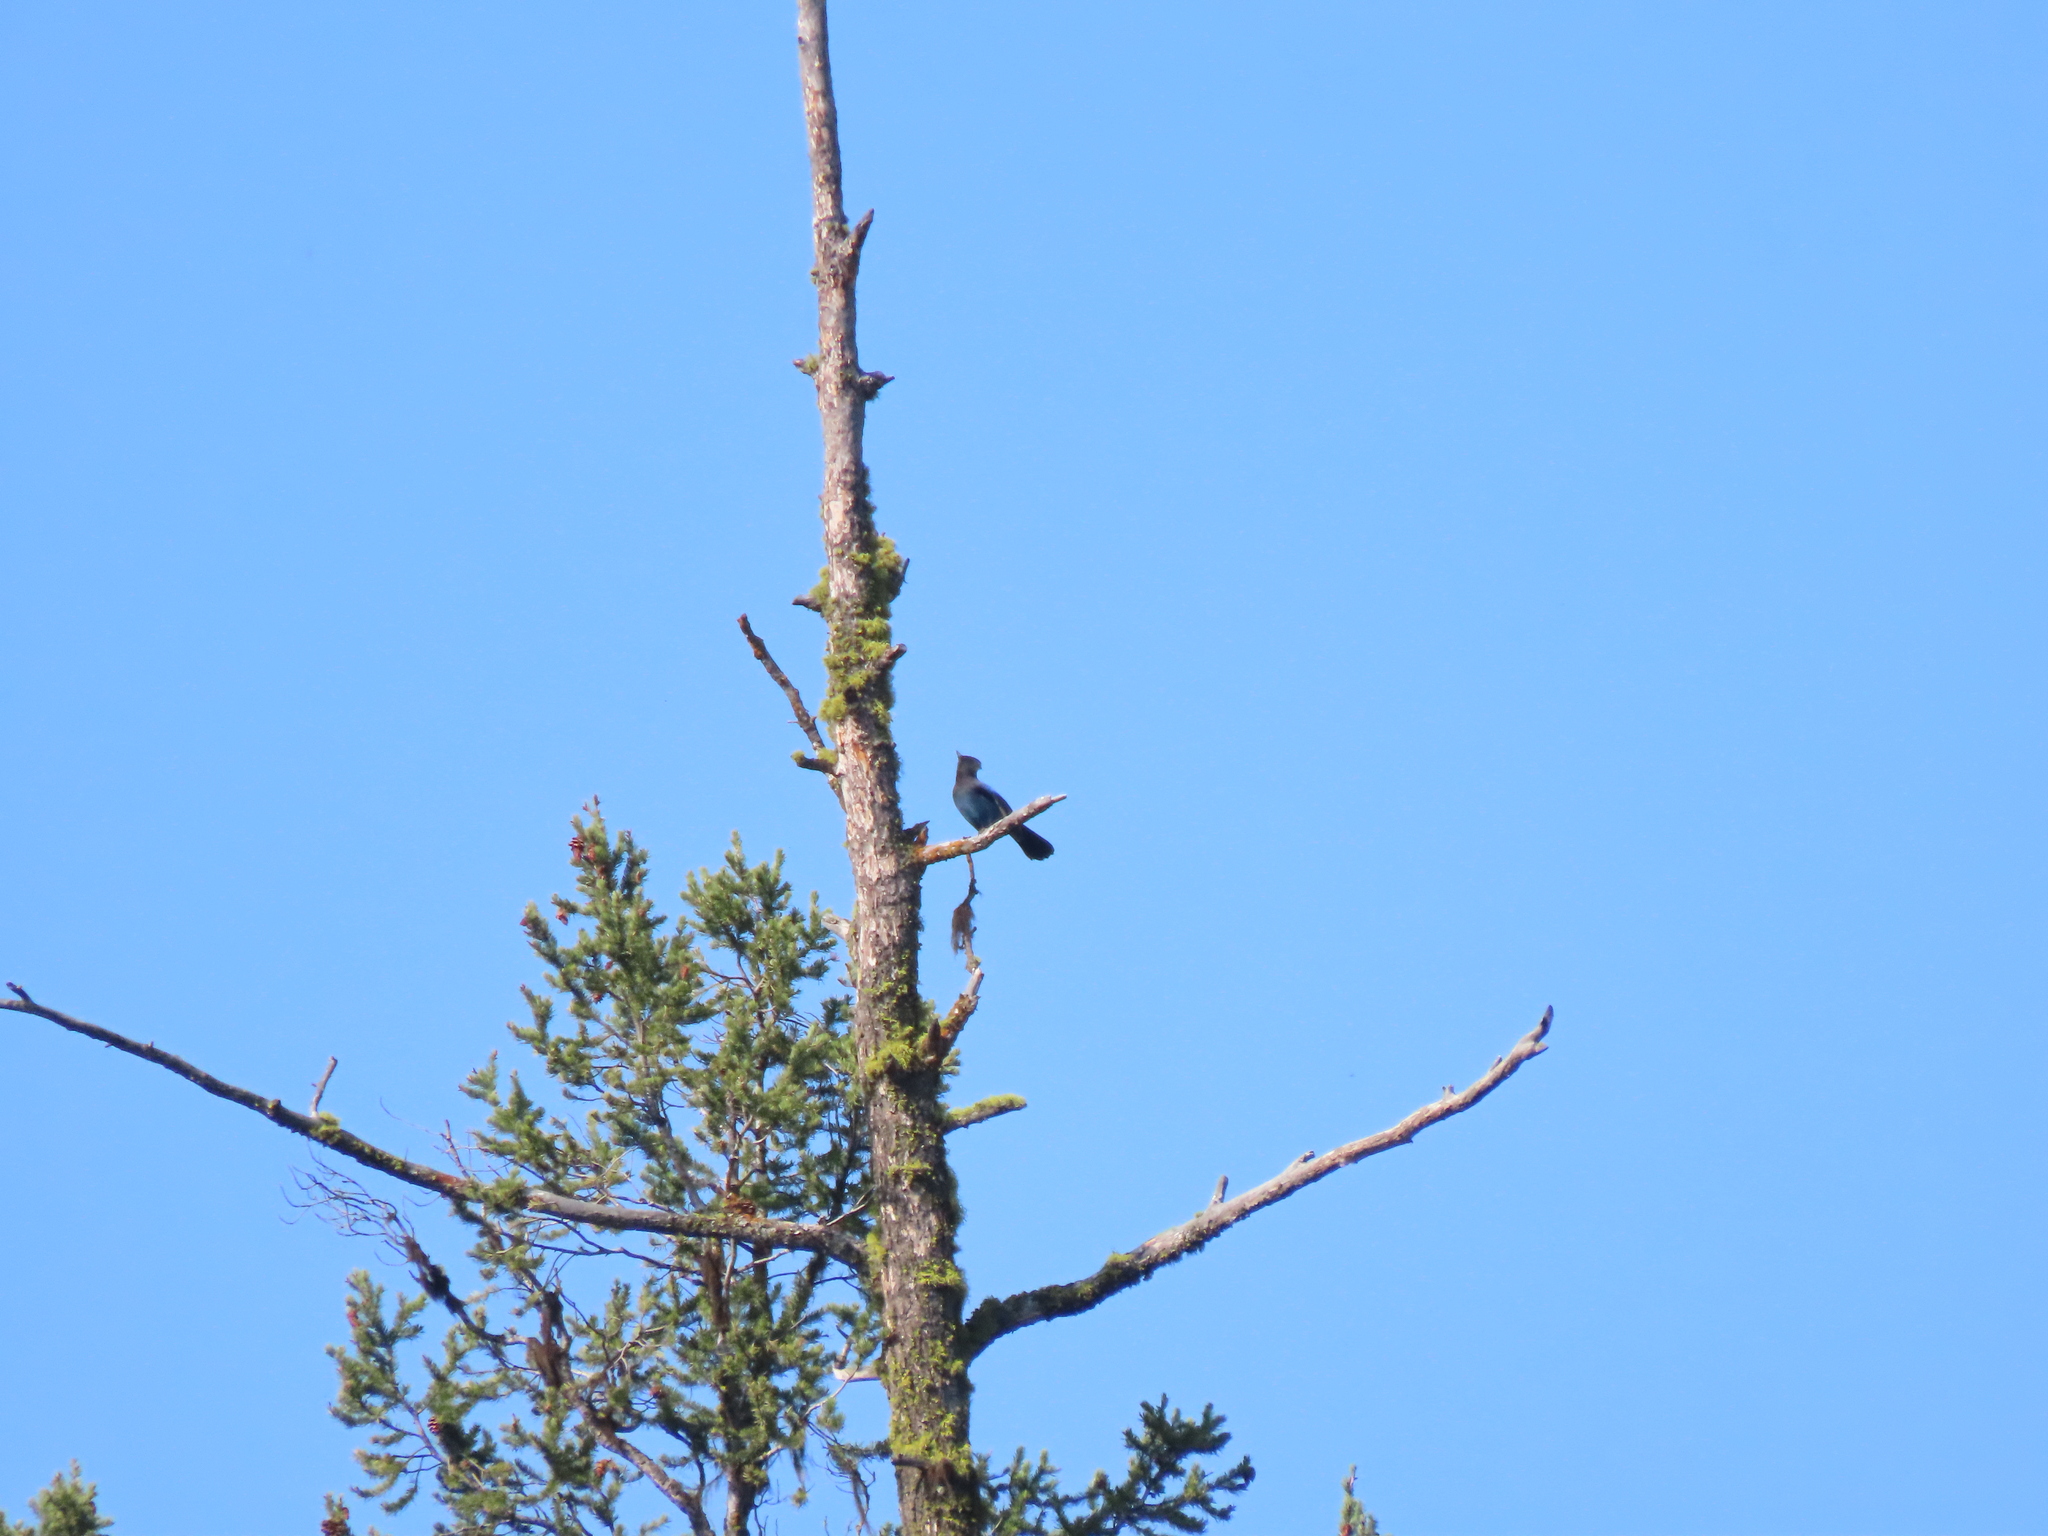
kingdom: Animalia
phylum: Chordata
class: Aves
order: Passeriformes
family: Corvidae
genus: Cyanocitta
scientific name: Cyanocitta stelleri
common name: Steller's jay
